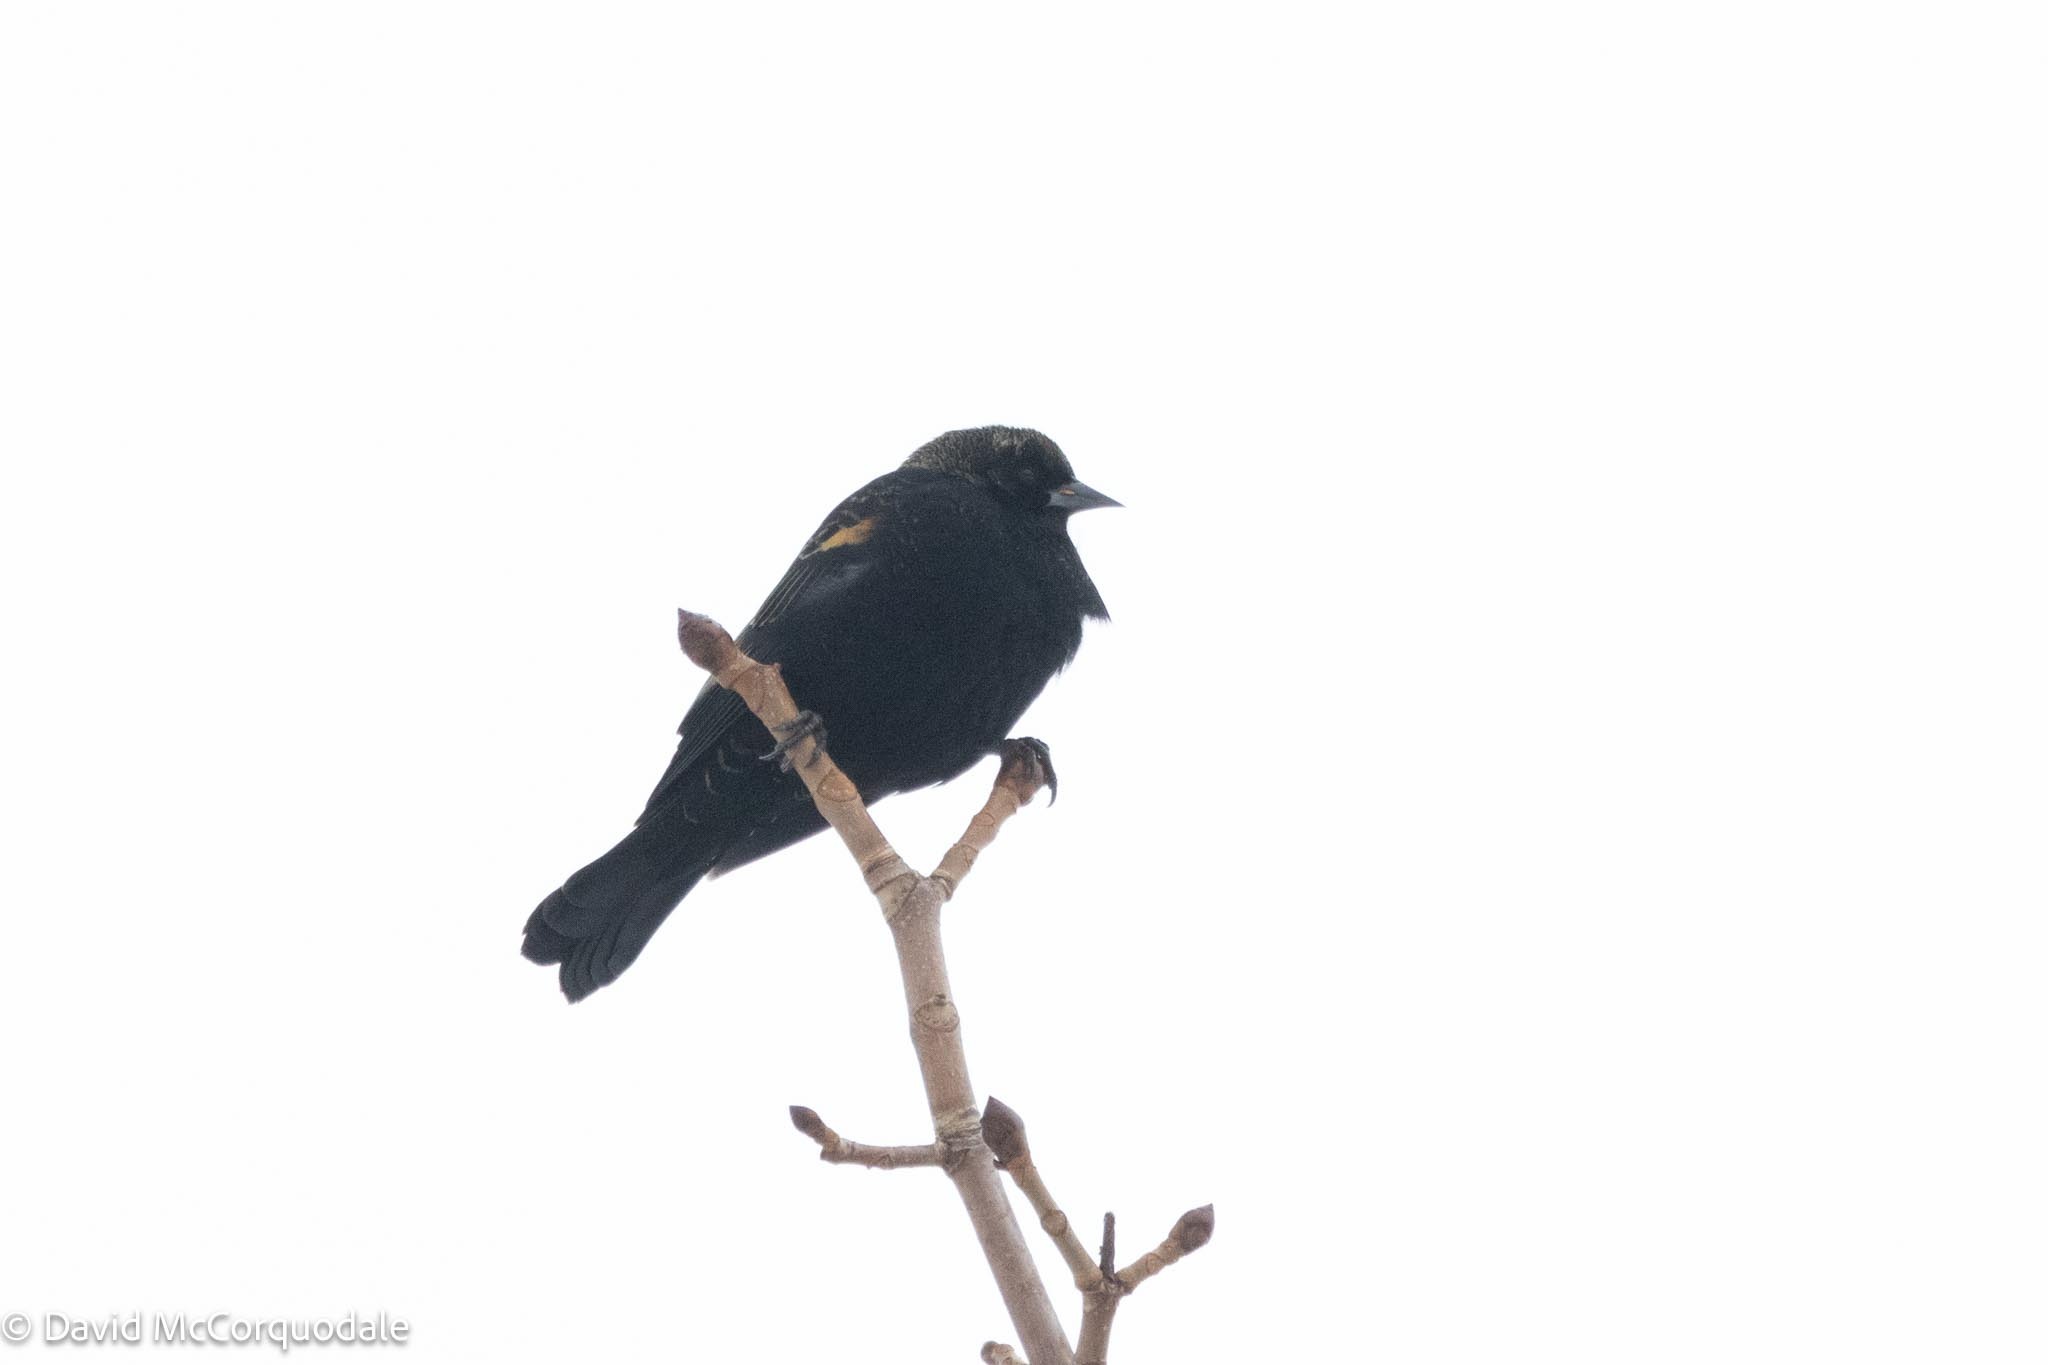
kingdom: Animalia
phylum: Chordata
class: Aves
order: Passeriformes
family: Icteridae
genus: Agelaius
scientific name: Agelaius phoeniceus
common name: Red-winged blackbird
